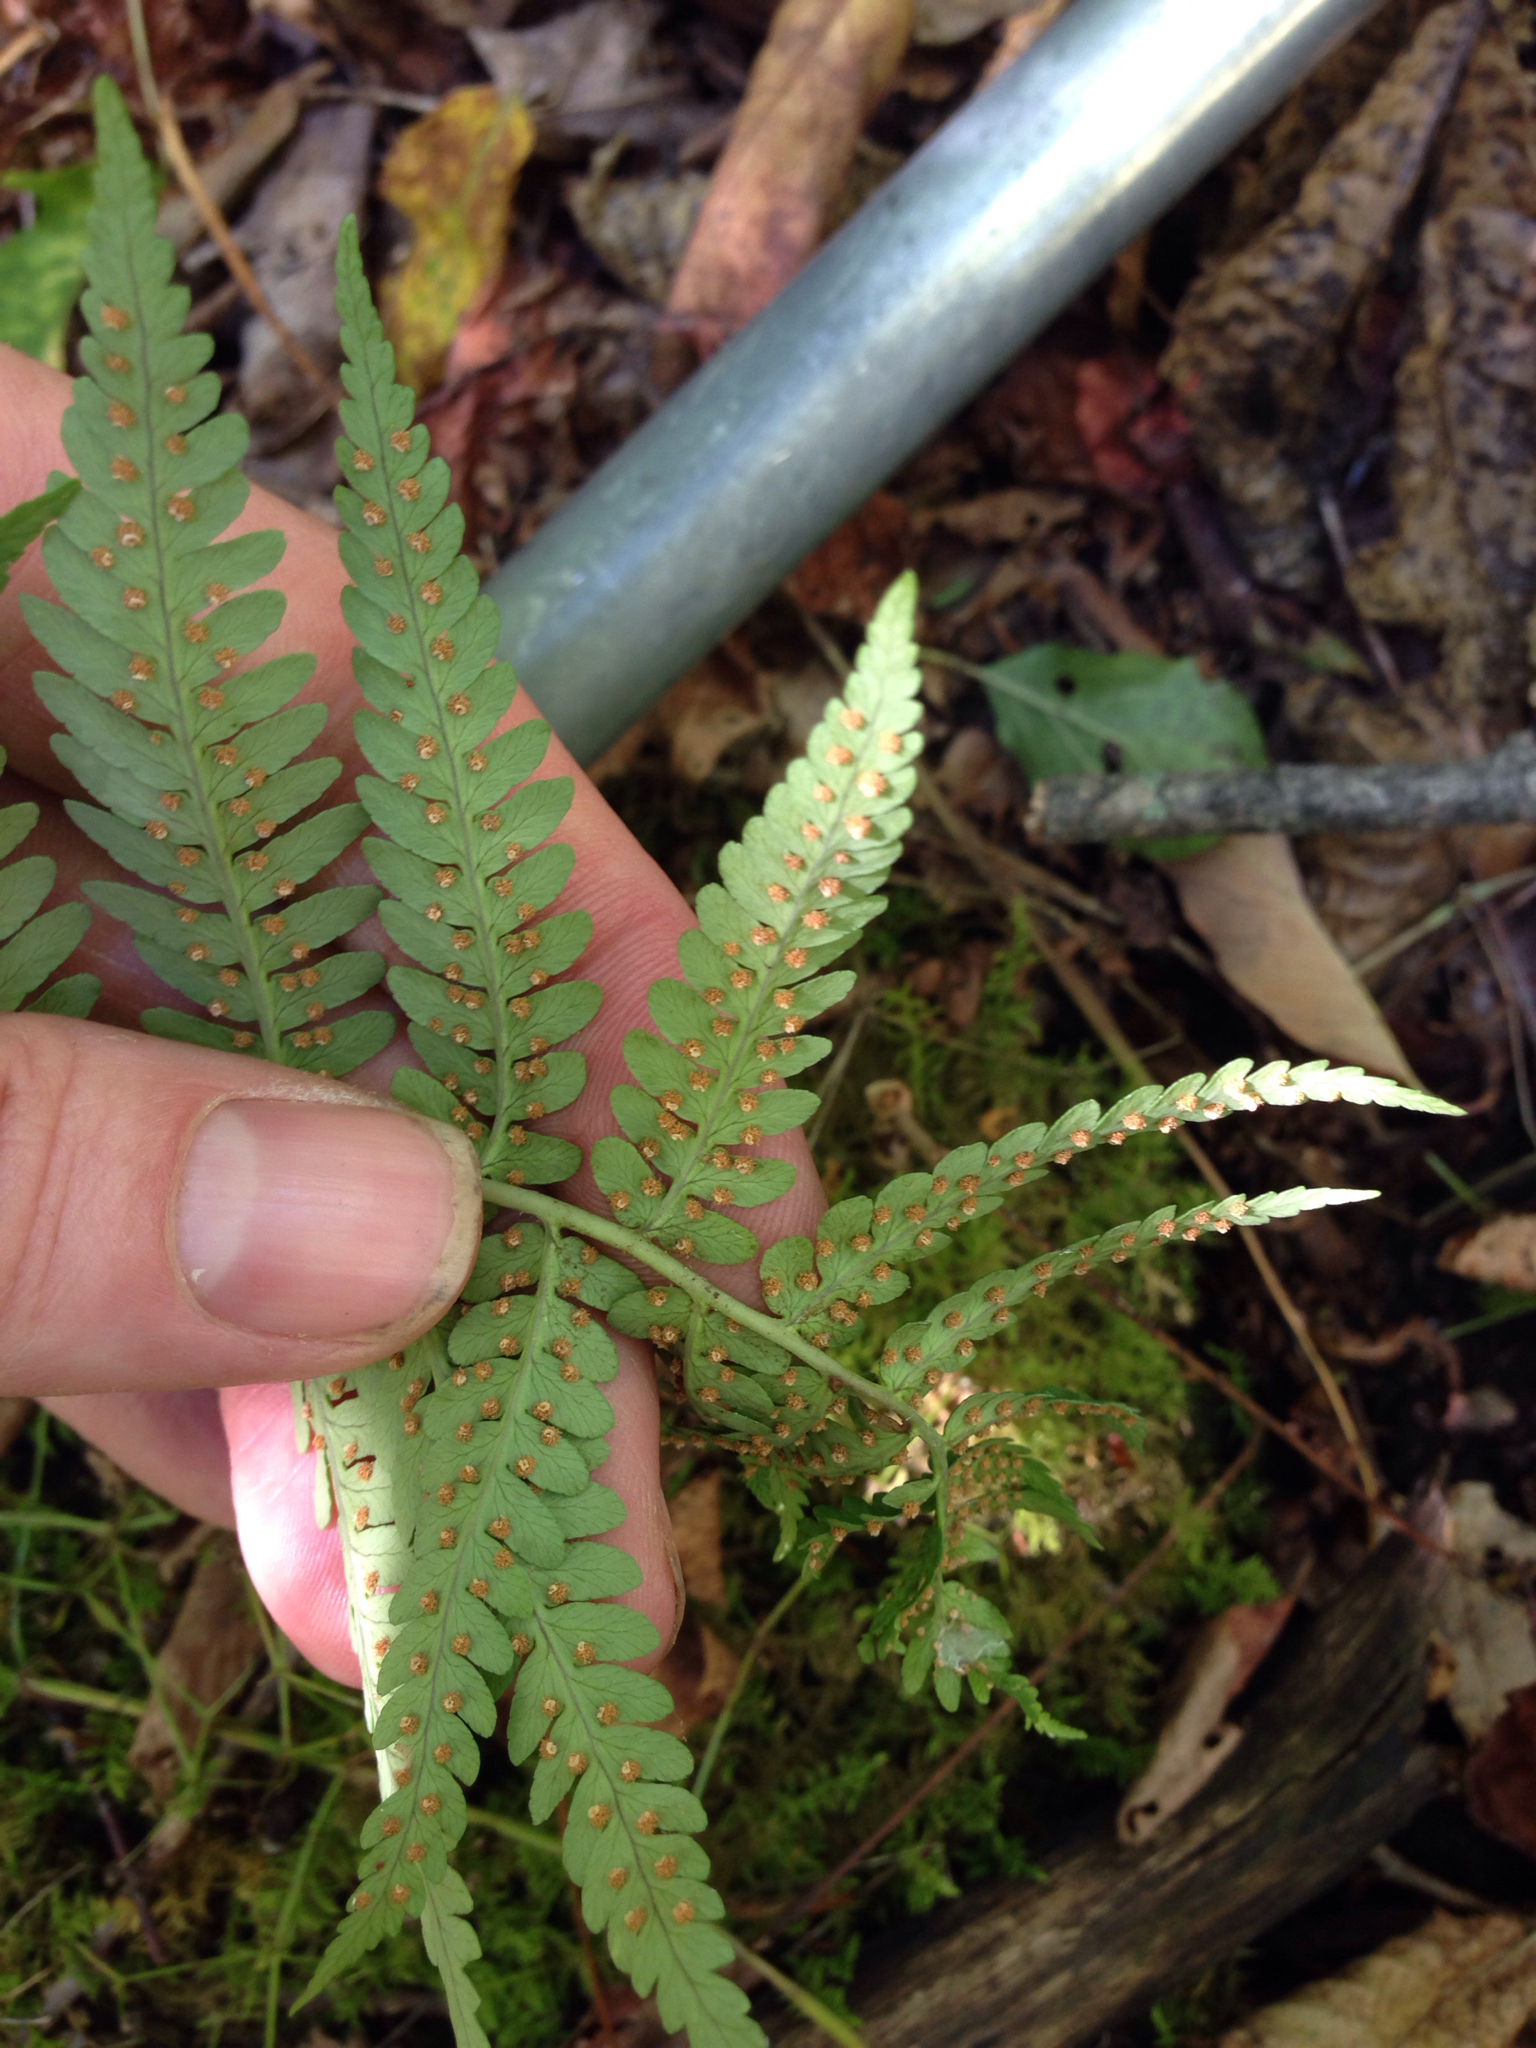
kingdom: Plantae
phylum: Tracheophyta
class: Polypodiopsida
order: Polypodiales
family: Dryopteridaceae
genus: Dryopteris
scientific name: Dryopteris marginalis
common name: Marginal wood fern
